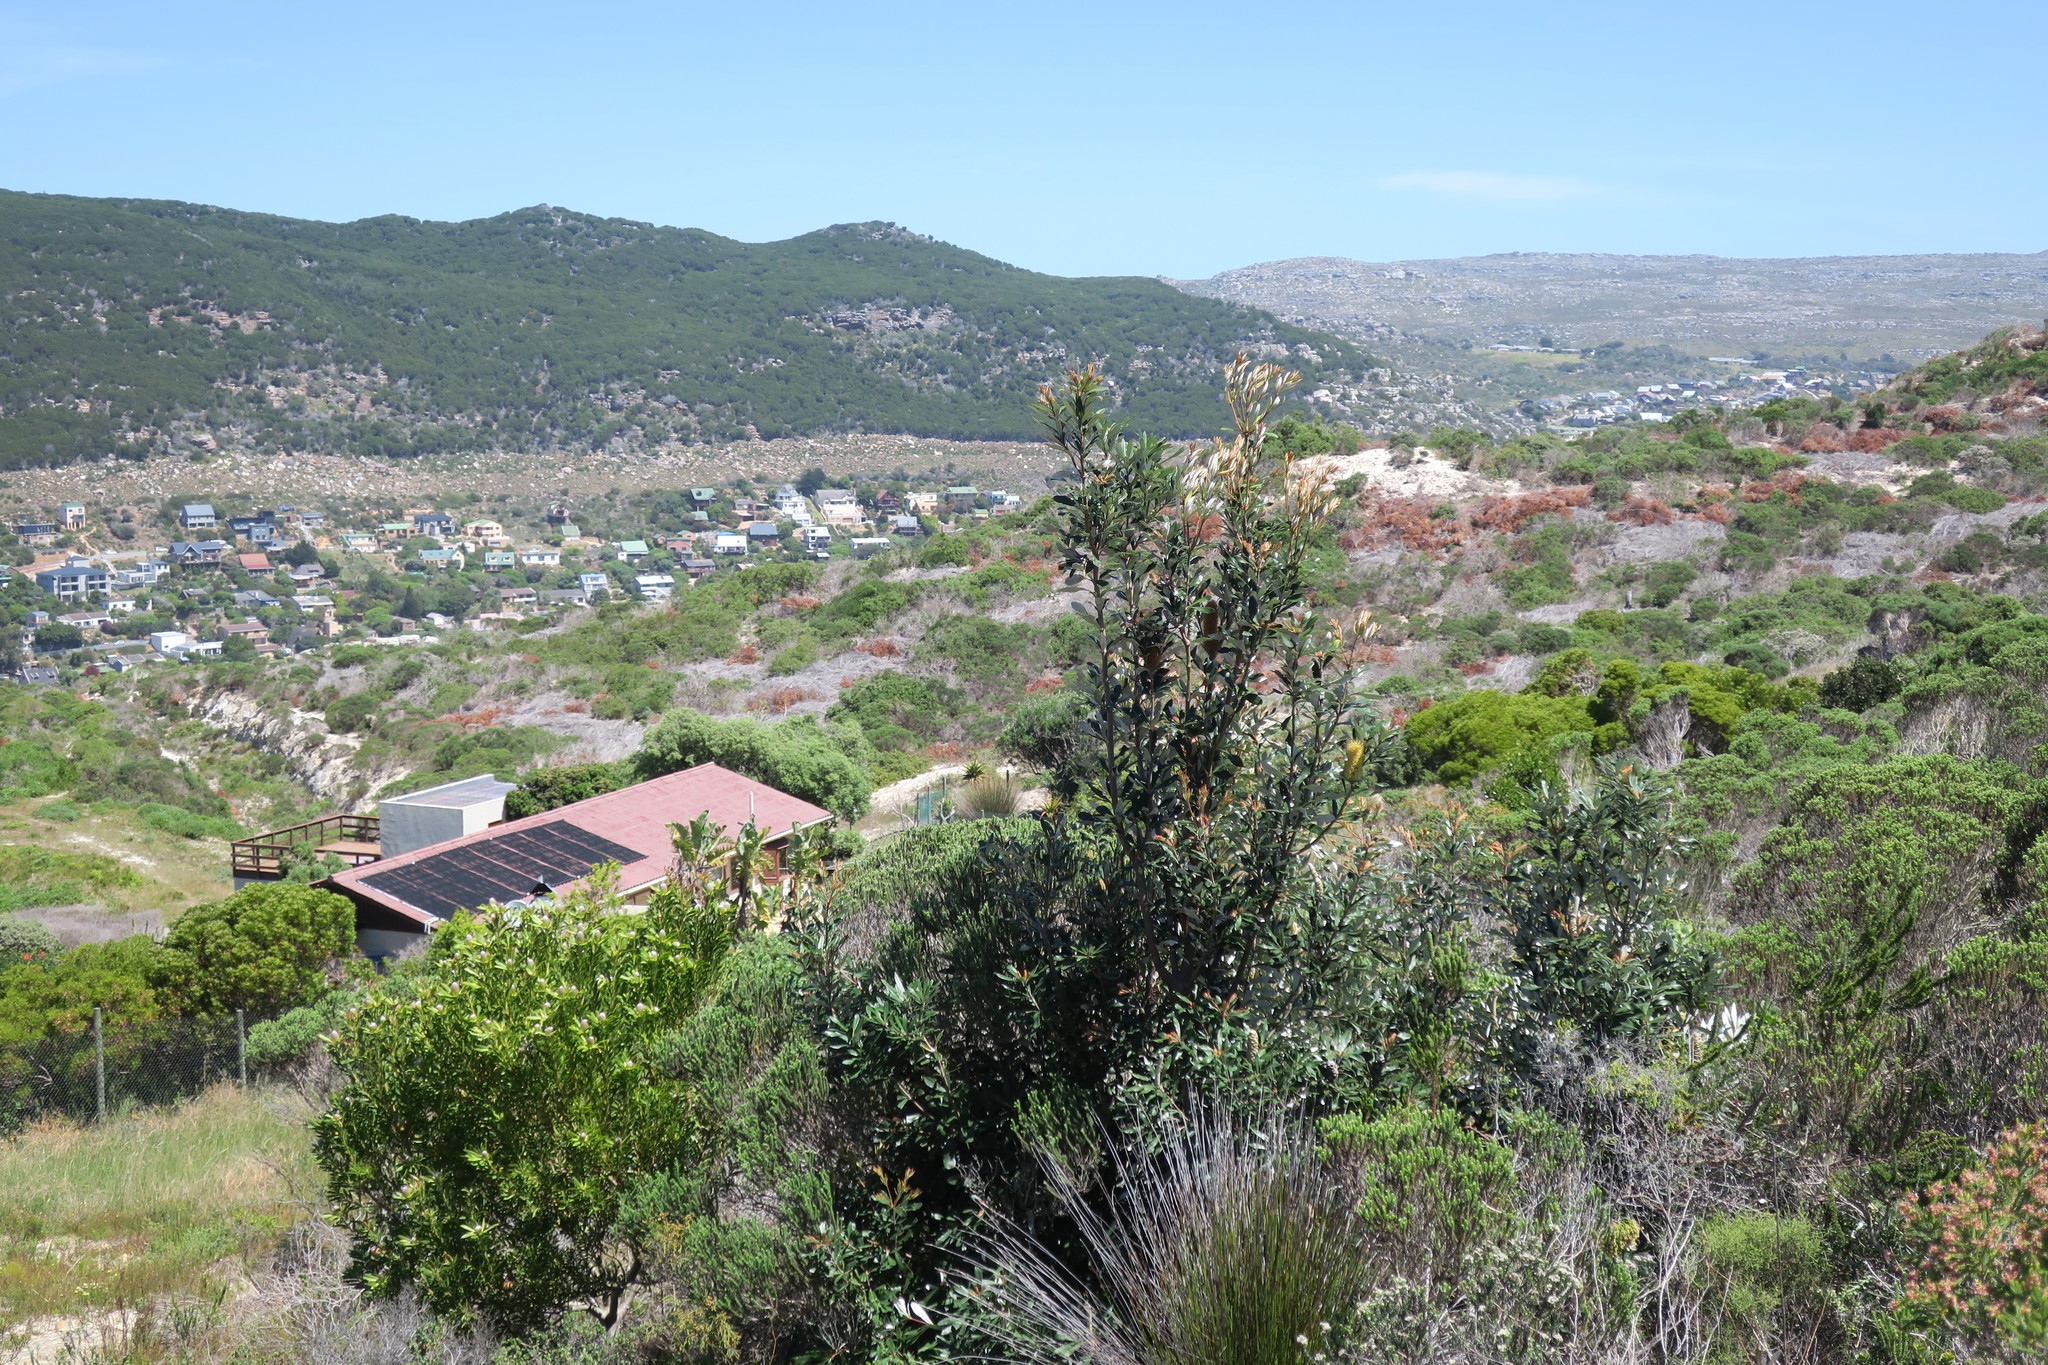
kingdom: Plantae
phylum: Tracheophyta
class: Magnoliopsida
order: Proteales
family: Proteaceae
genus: Banksia
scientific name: Banksia integrifolia
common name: White-honeysuckle
